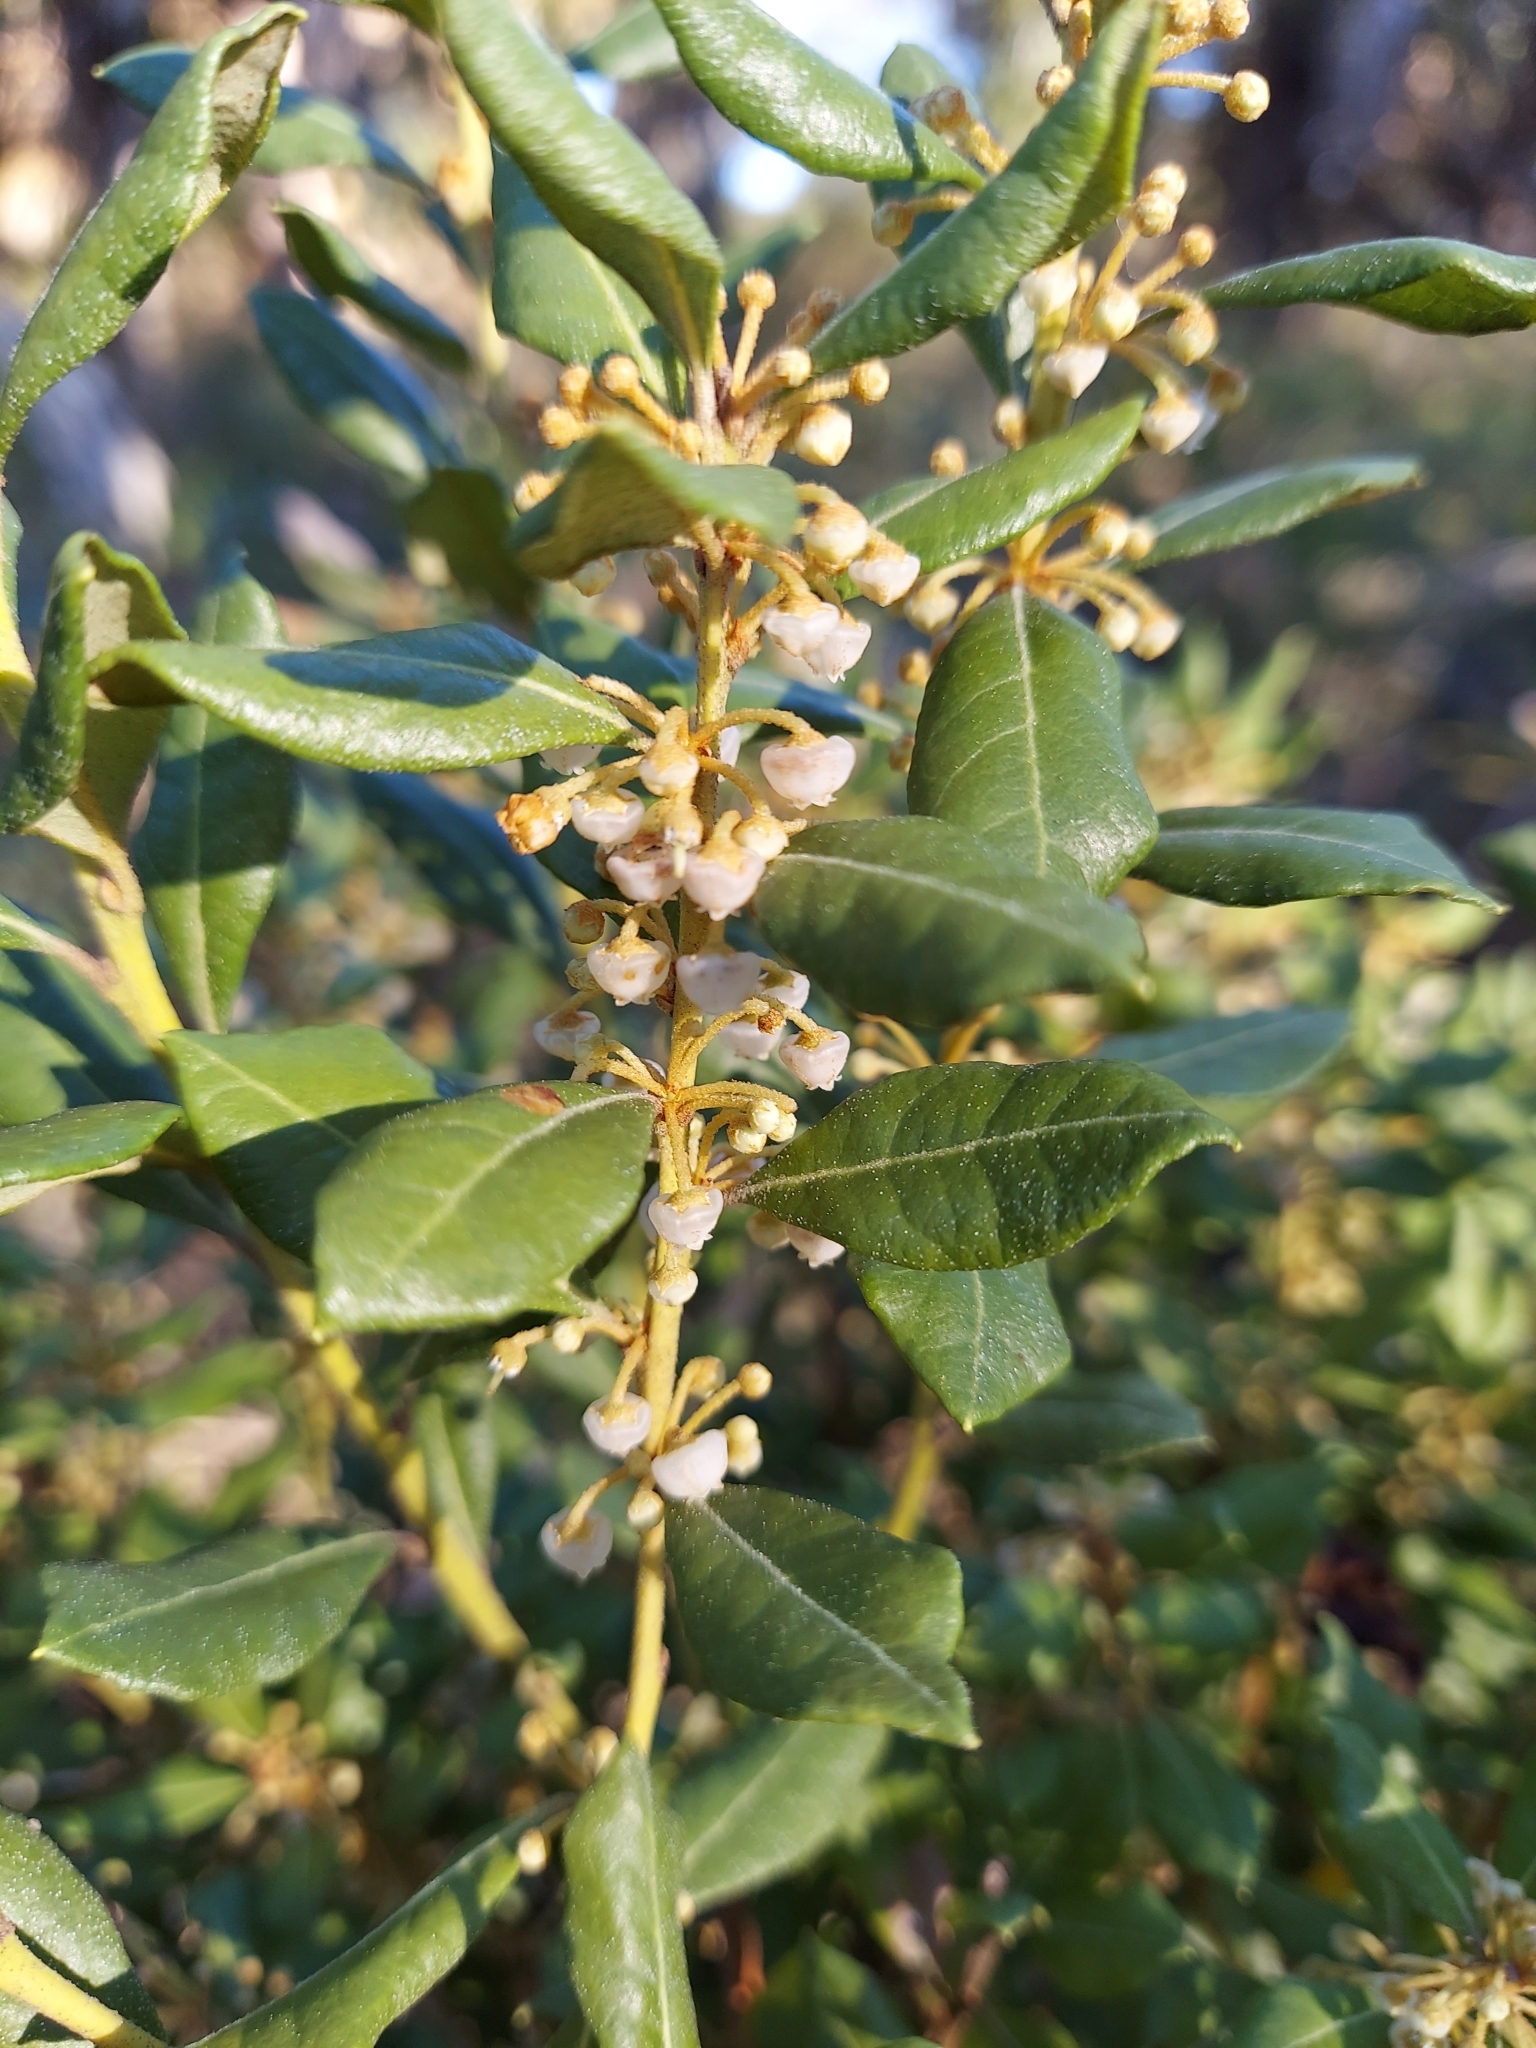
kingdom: Plantae
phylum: Tracheophyta
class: Magnoliopsida
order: Ericales
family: Ericaceae
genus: Lyonia
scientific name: Lyonia ferruginea
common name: Rusty lyonia
